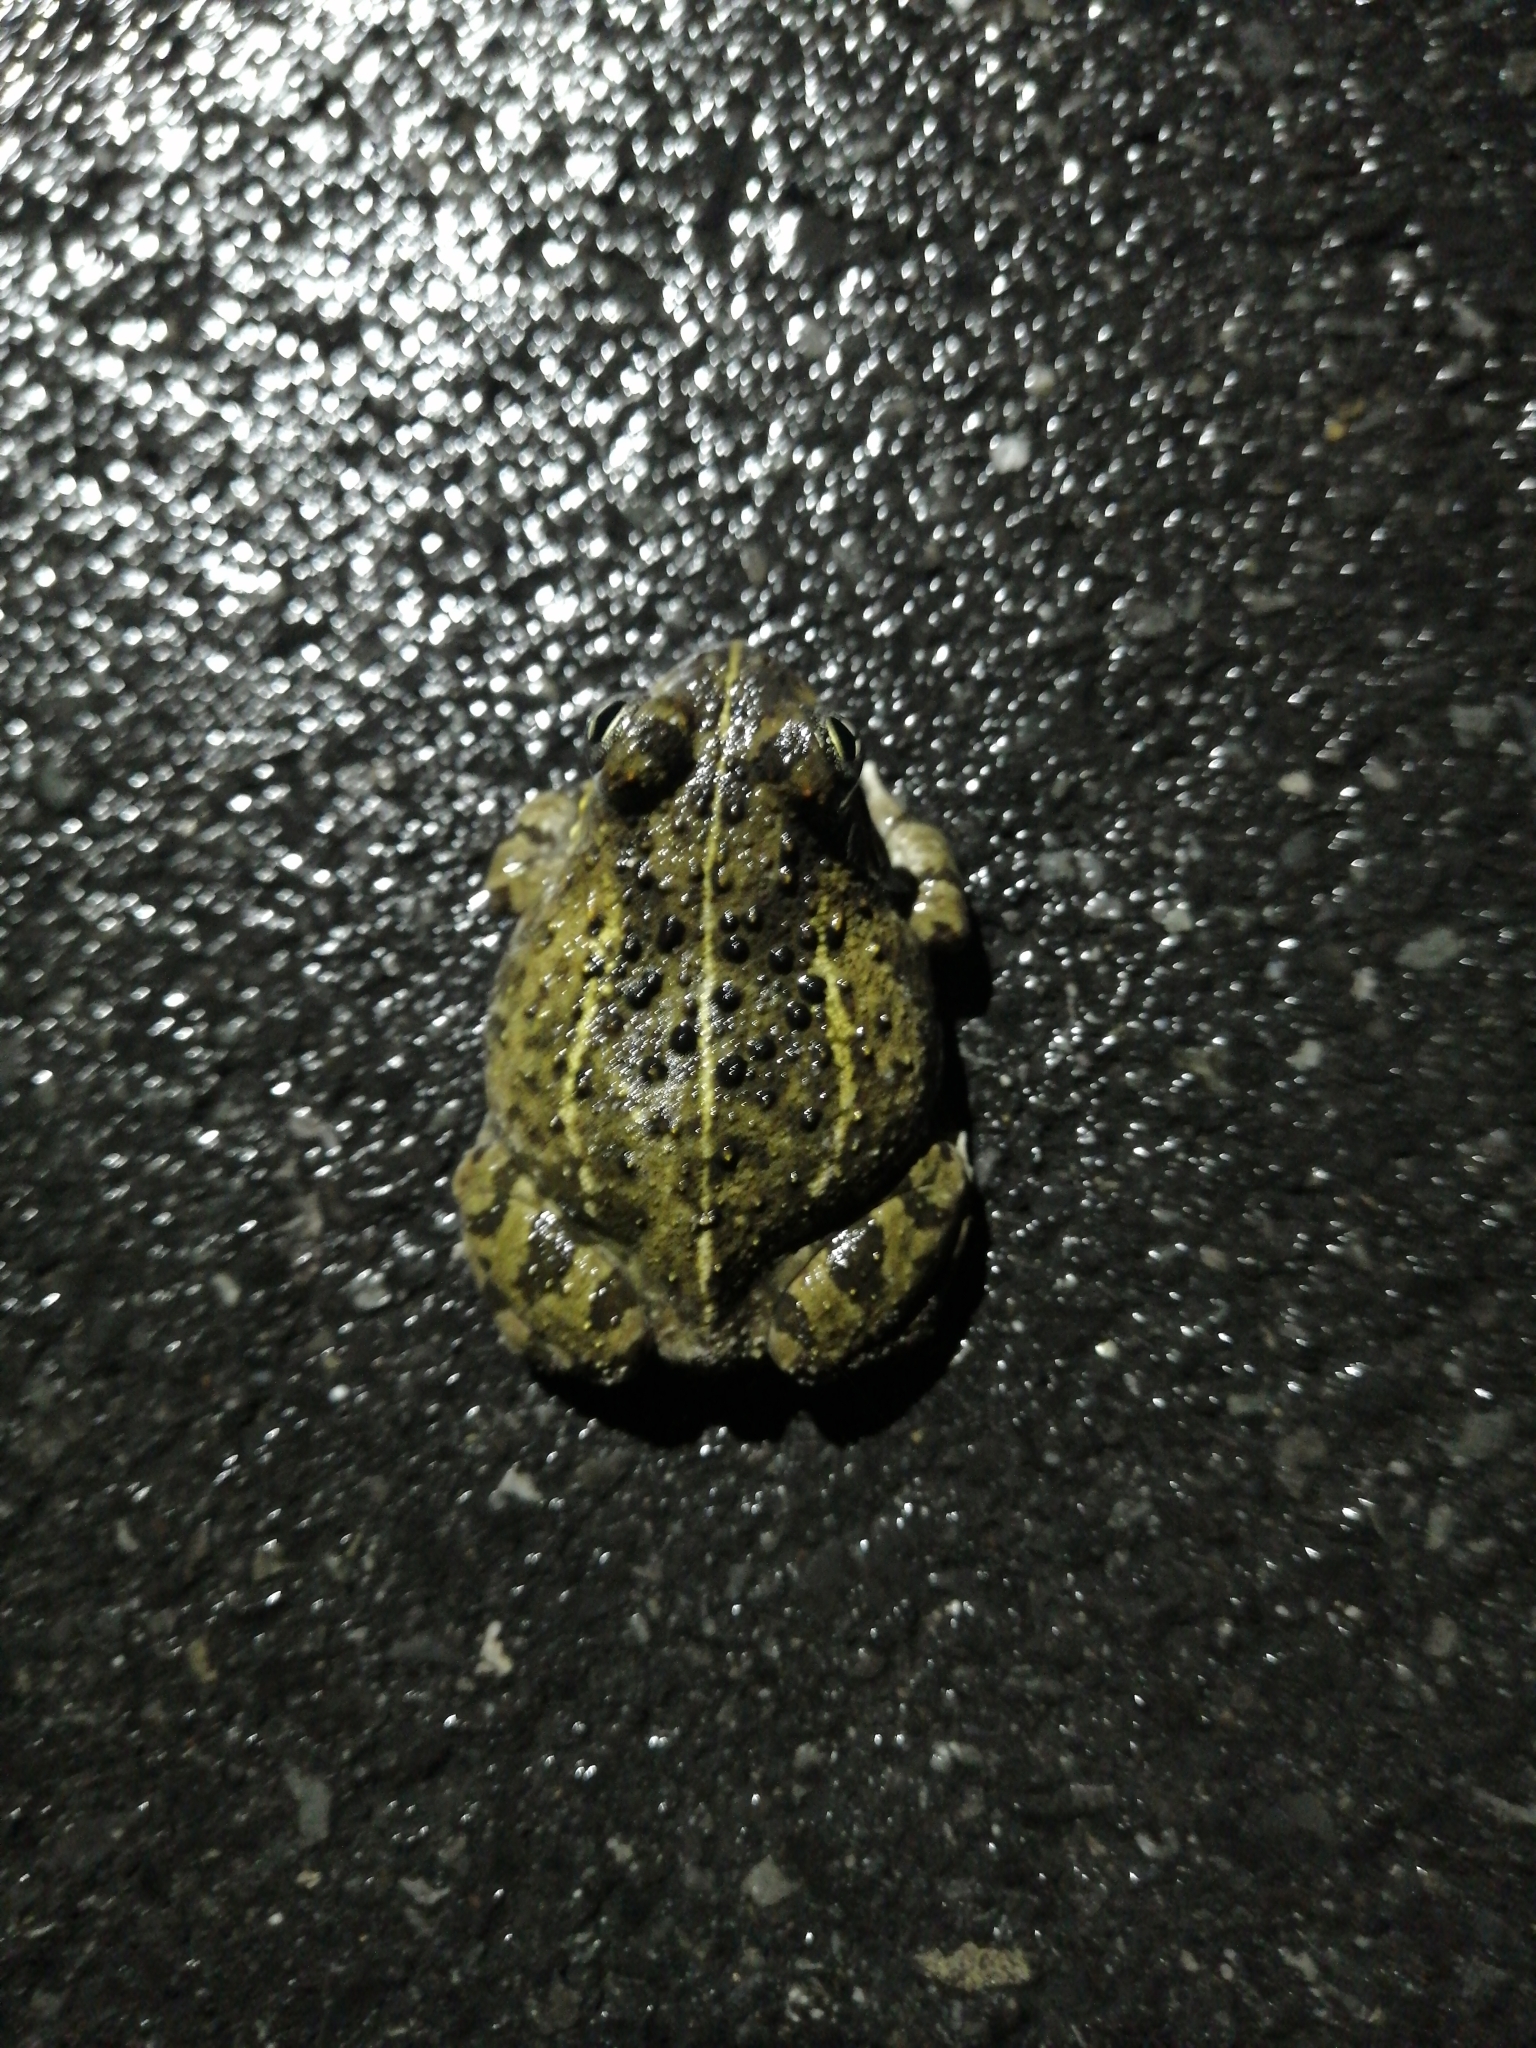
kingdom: Animalia
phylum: Chordata
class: Amphibia
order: Anura
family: Pyxicephalidae
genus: Tomopterna
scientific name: Tomopterna delalandii
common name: Delalande's burrowing bullfrog
